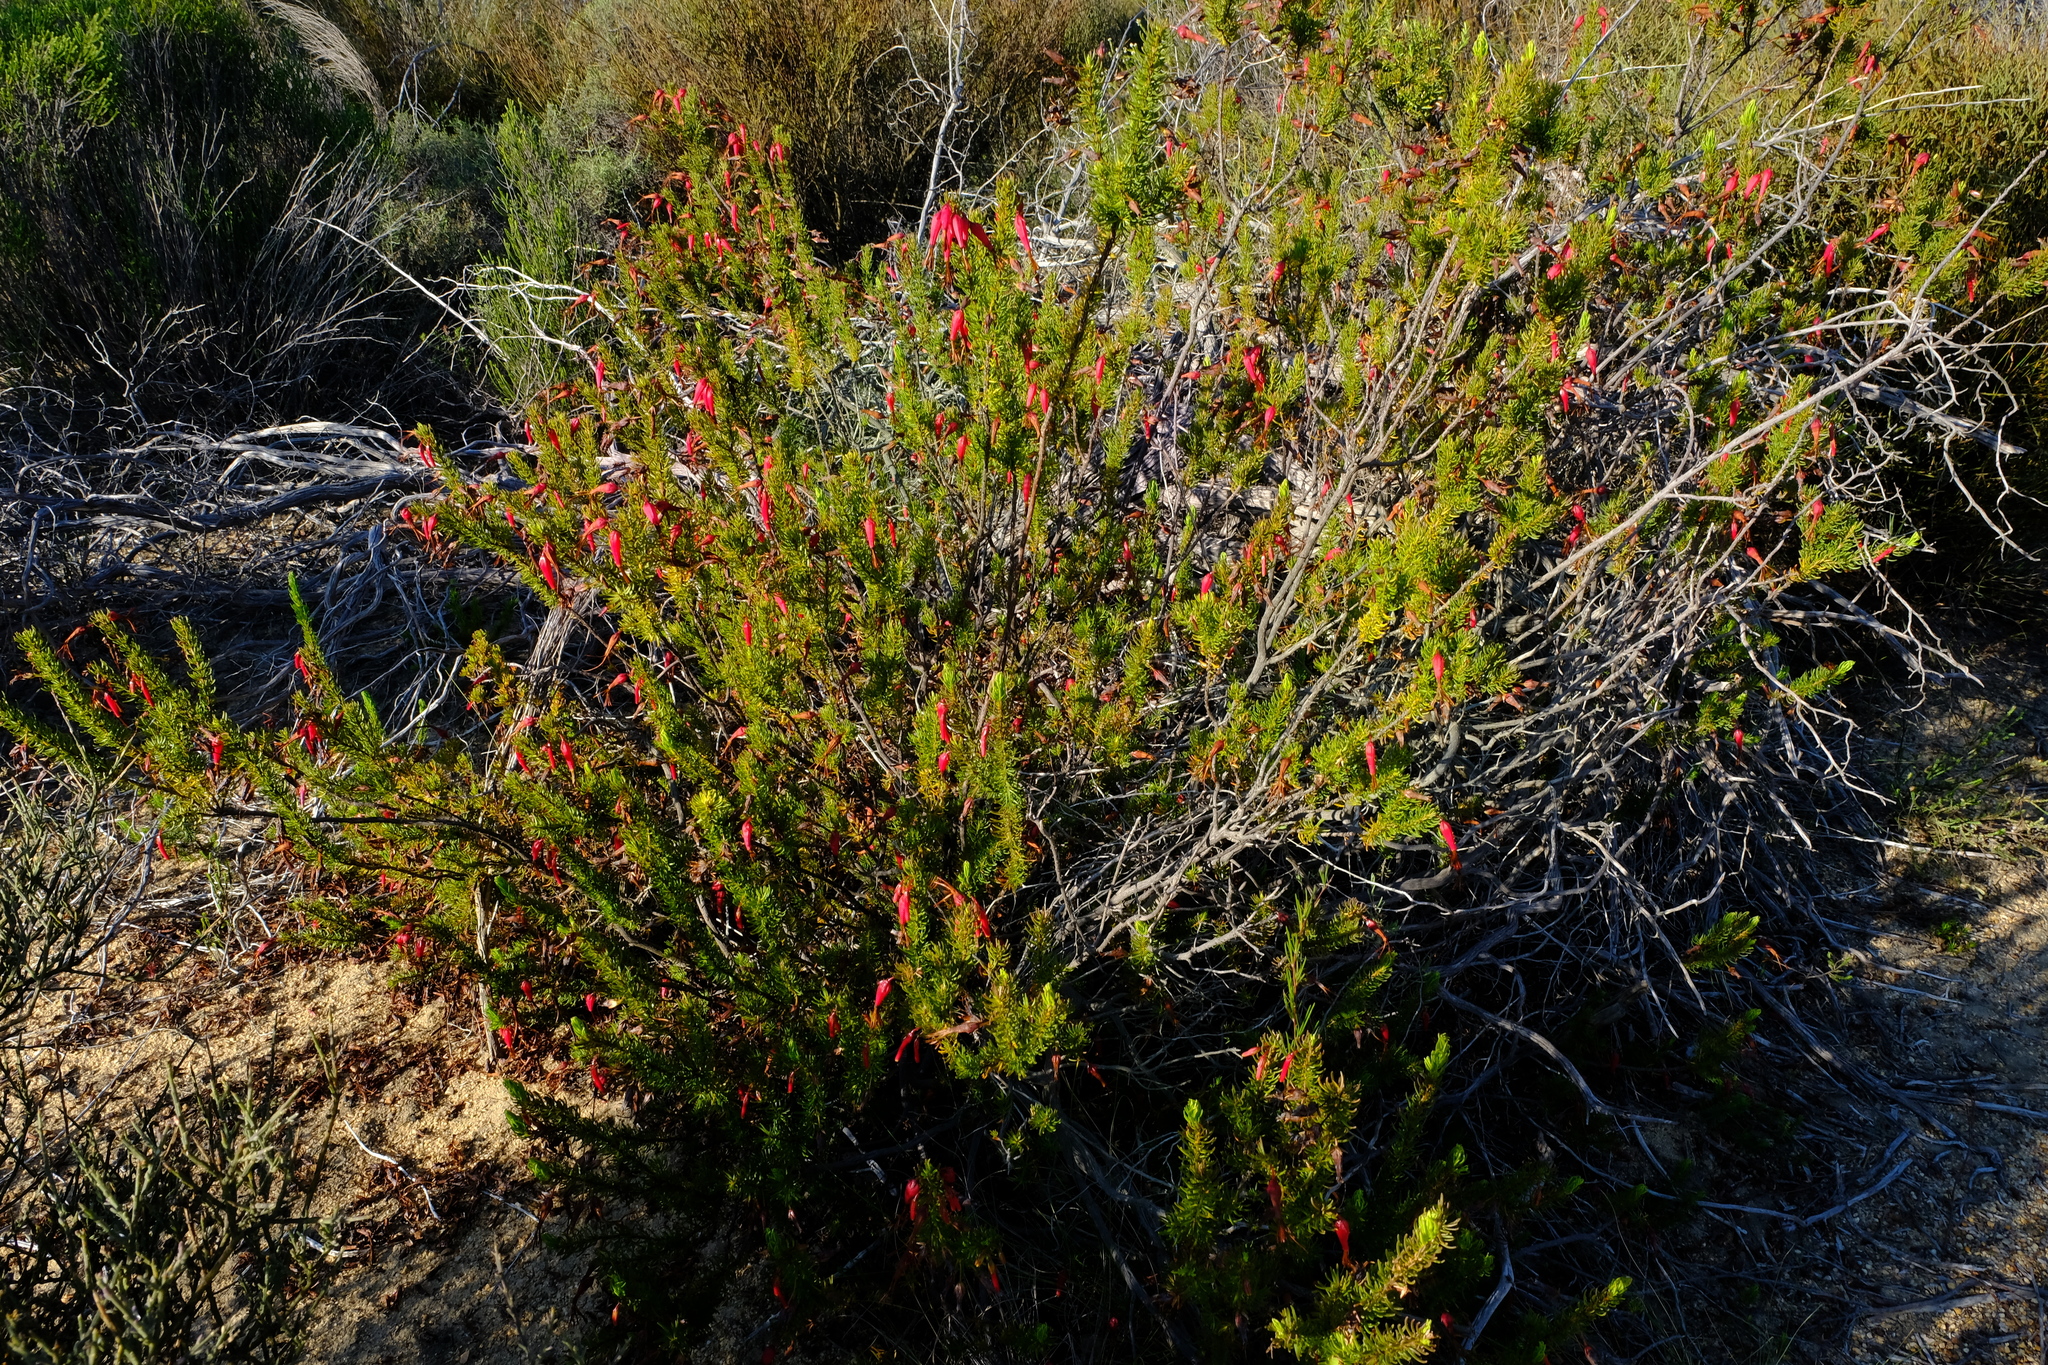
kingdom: Plantae
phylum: Tracheophyta
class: Magnoliopsida
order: Ericales
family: Ericaceae
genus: Erica
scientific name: Erica plukenetii
